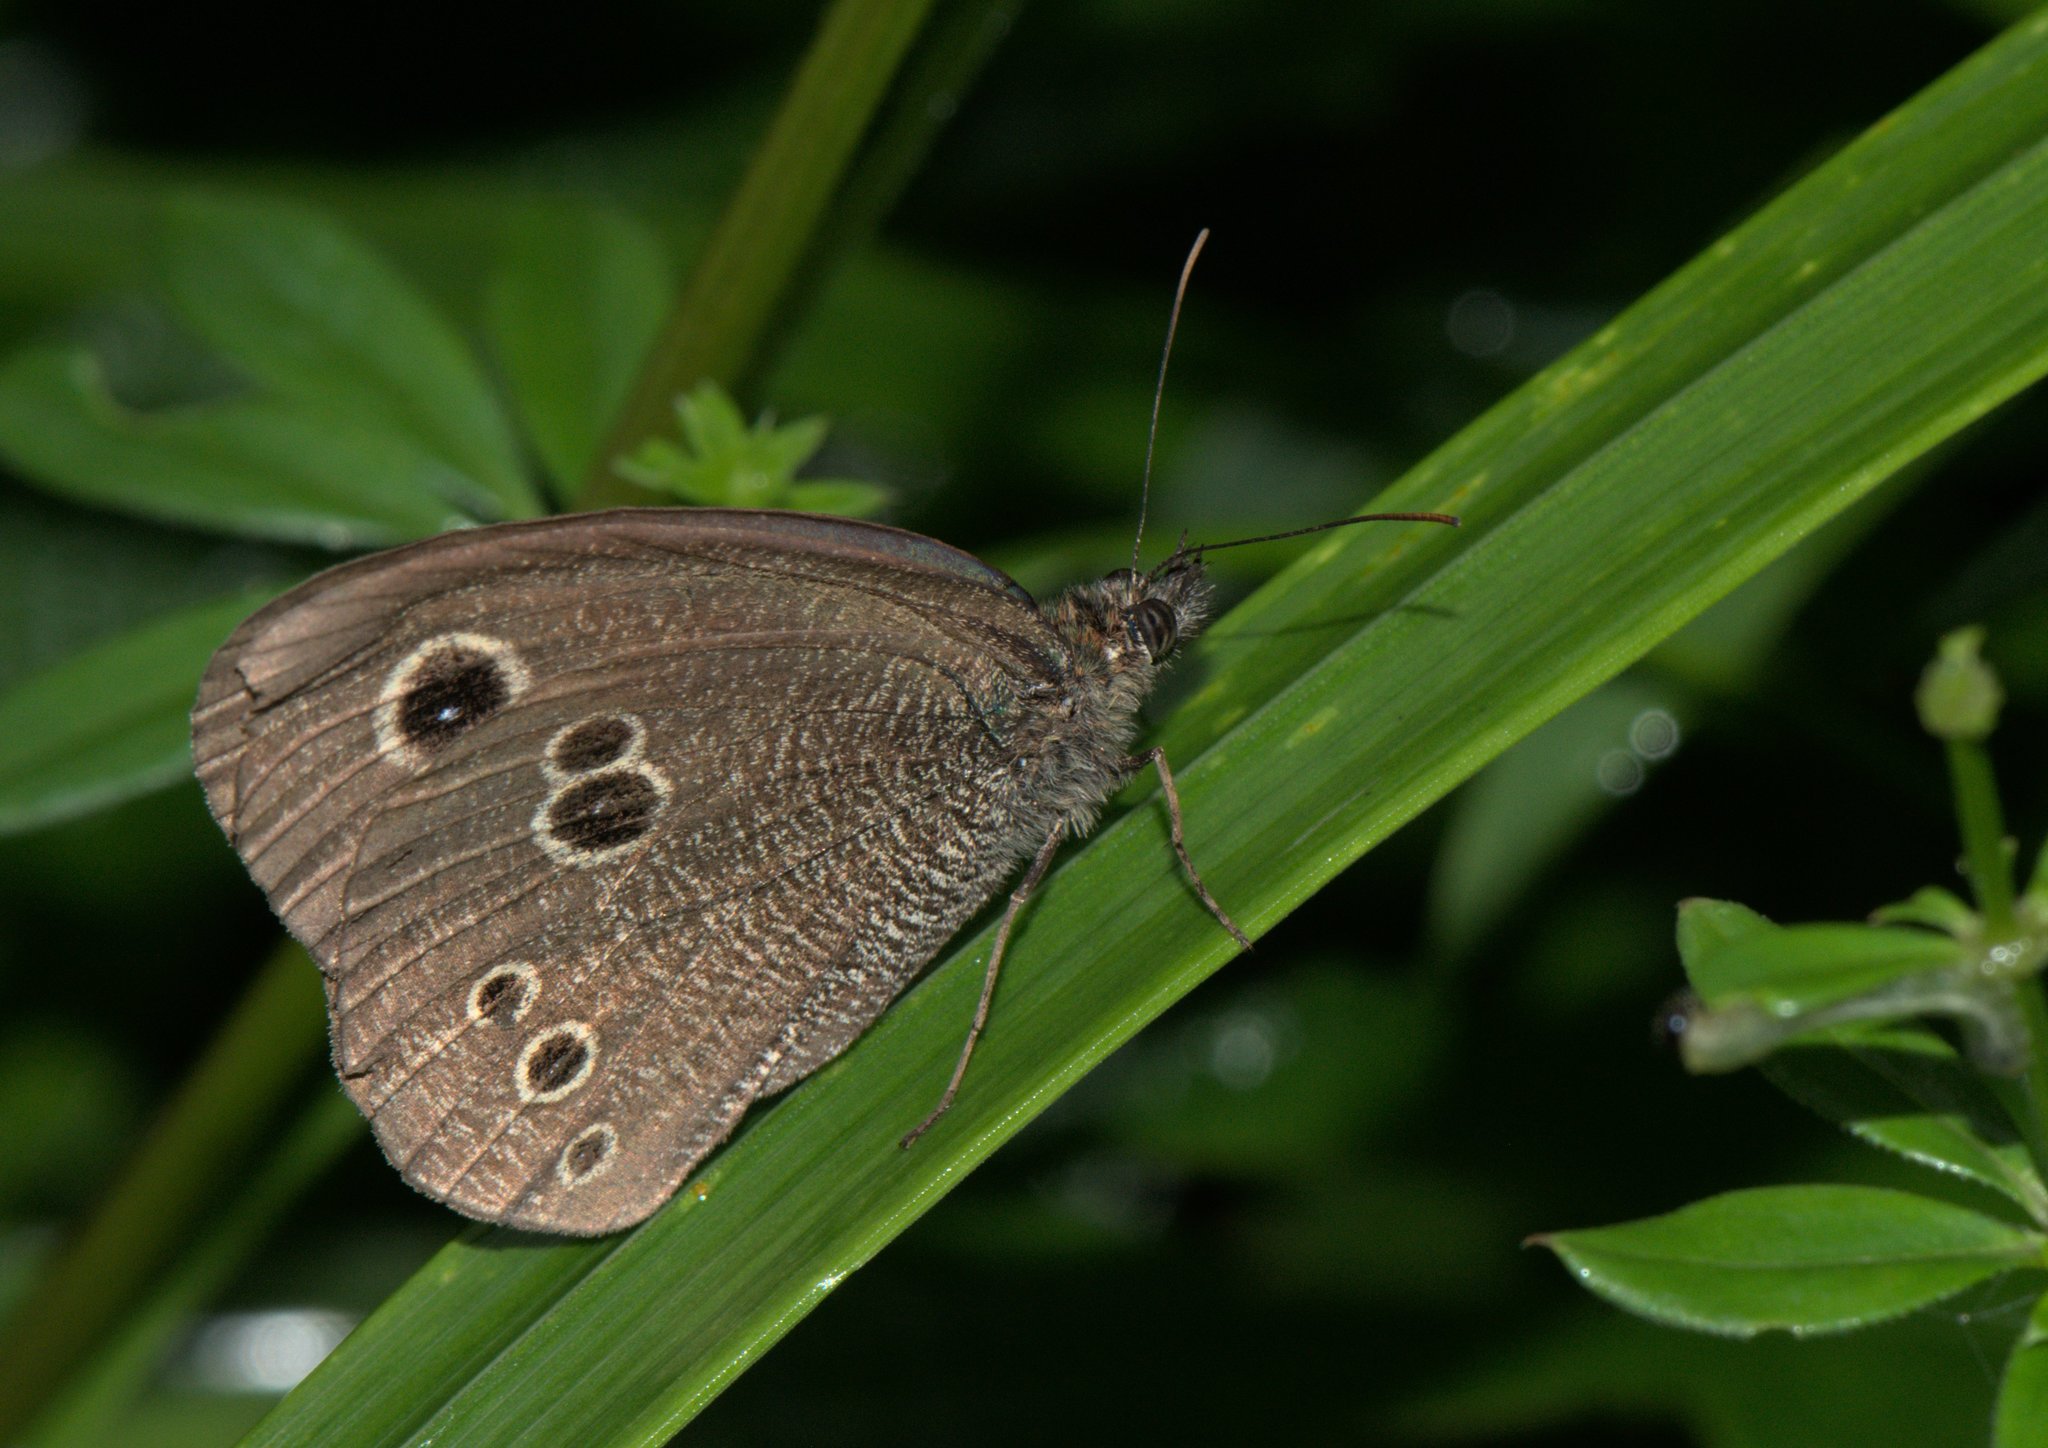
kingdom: Animalia
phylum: Arthropoda
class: Insecta
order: Lepidoptera
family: Nymphalidae
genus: Ypthima
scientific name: Ypthima nikaea
